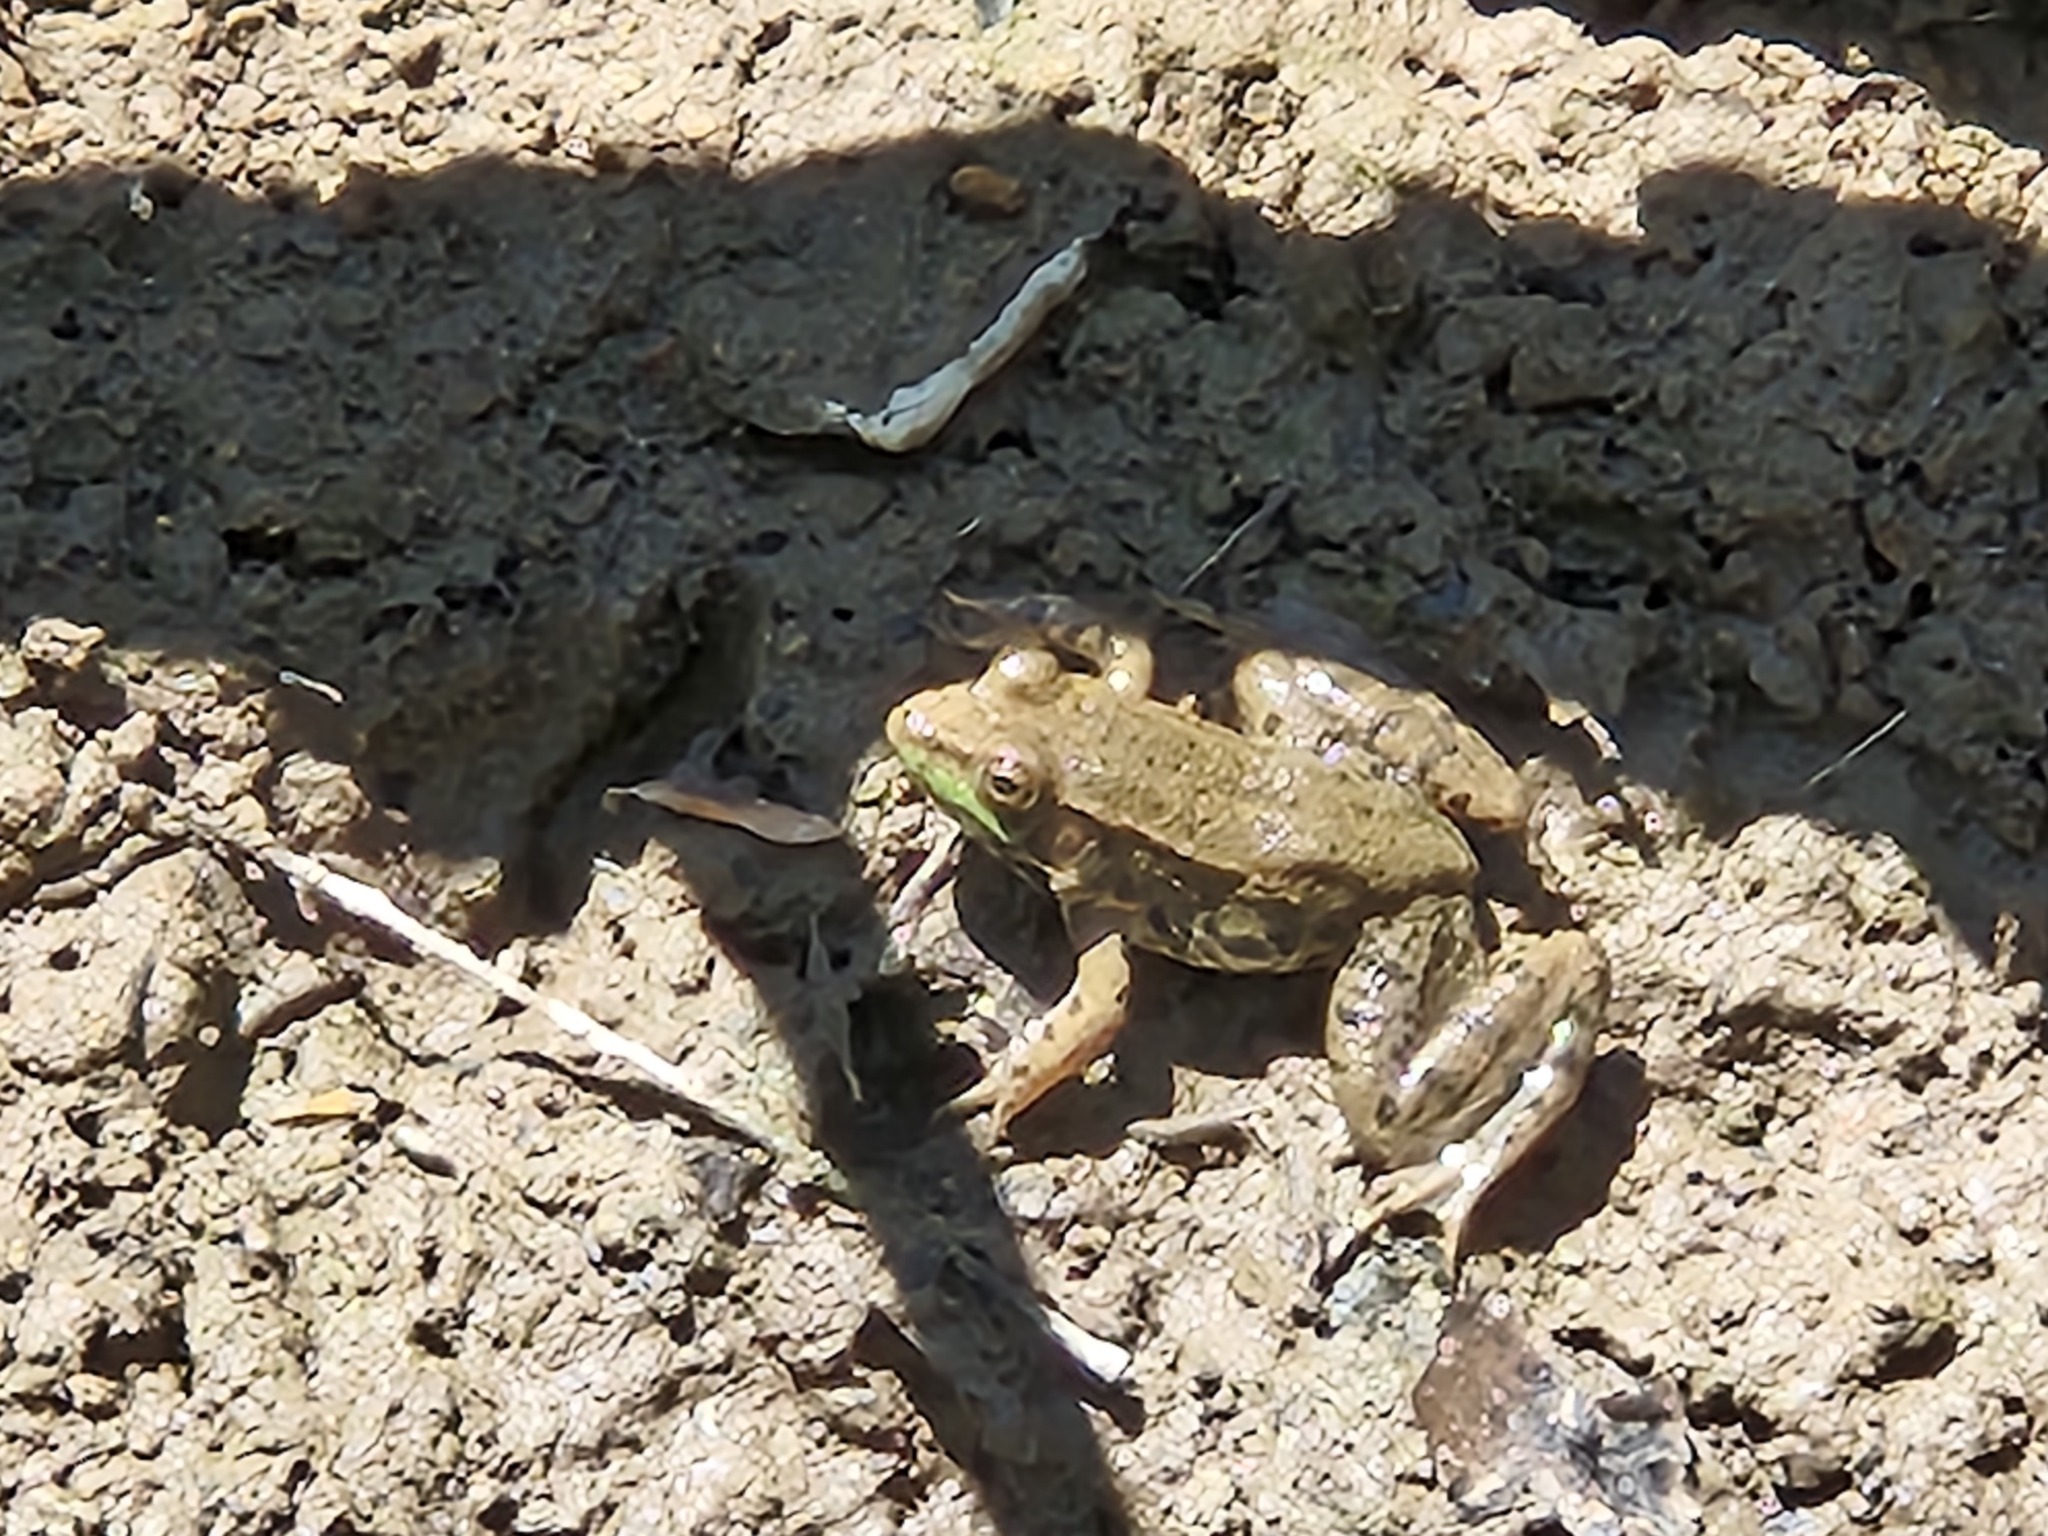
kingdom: Animalia
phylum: Chordata
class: Amphibia
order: Anura
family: Ranidae
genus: Lithobates
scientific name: Lithobates clamitans
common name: Green frog
